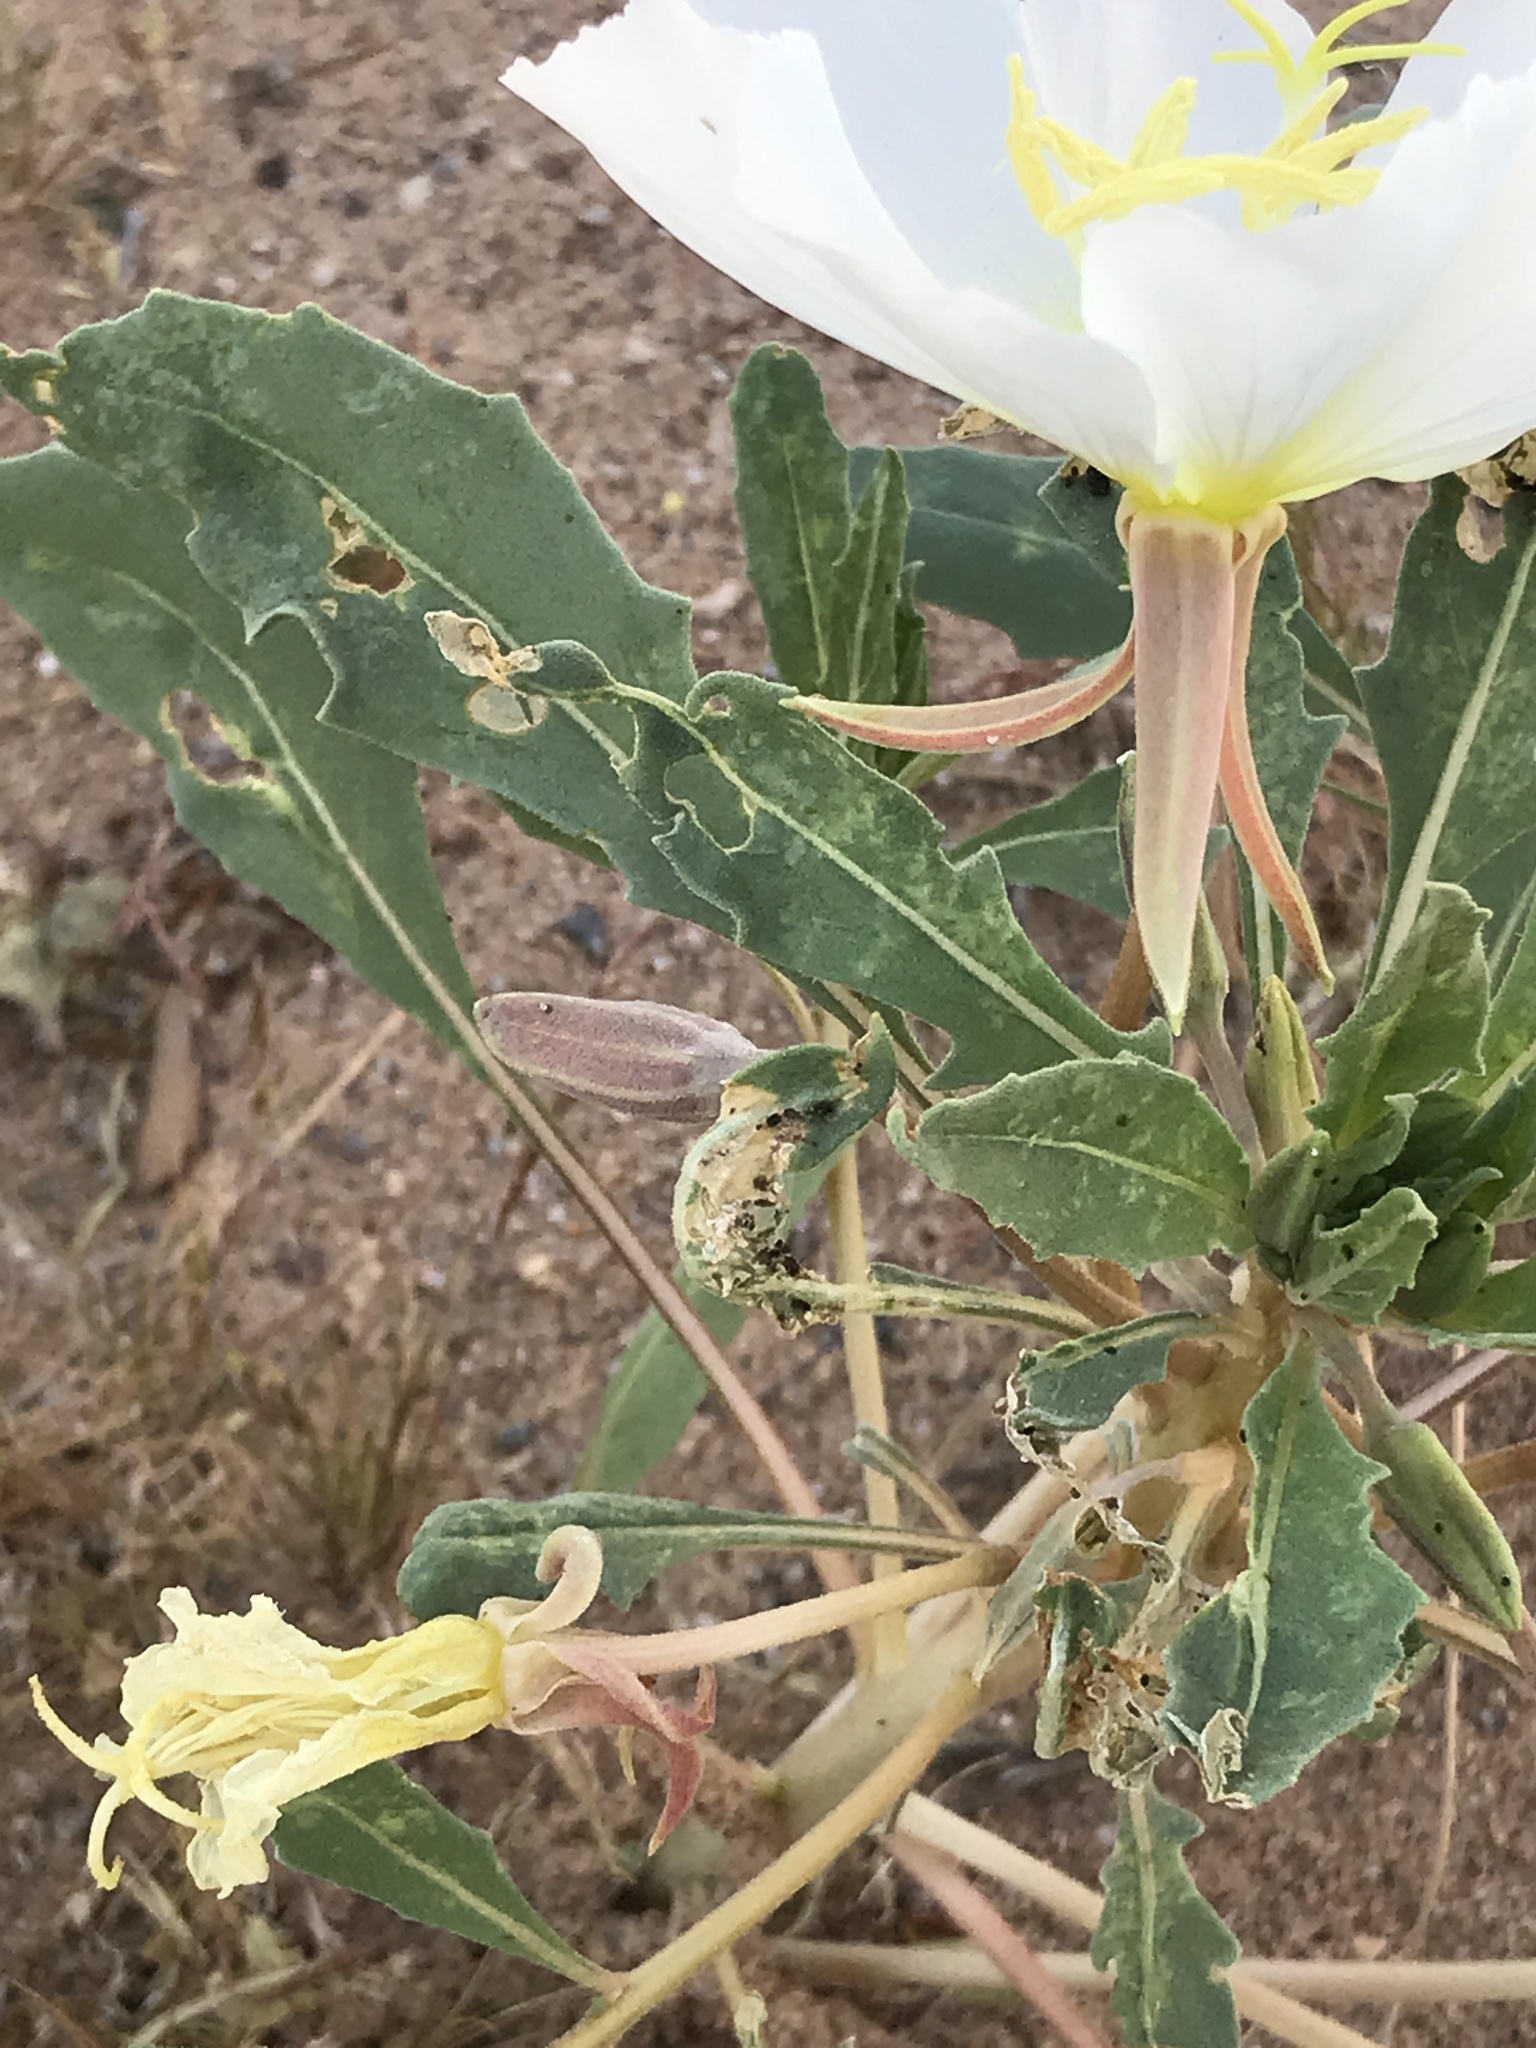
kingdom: Plantae
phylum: Tracheophyta
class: Magnoliopsida
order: Myrtales
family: Onagraceae
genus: Oenothera
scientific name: Oenothera deltoides
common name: Basket evening-primrose
